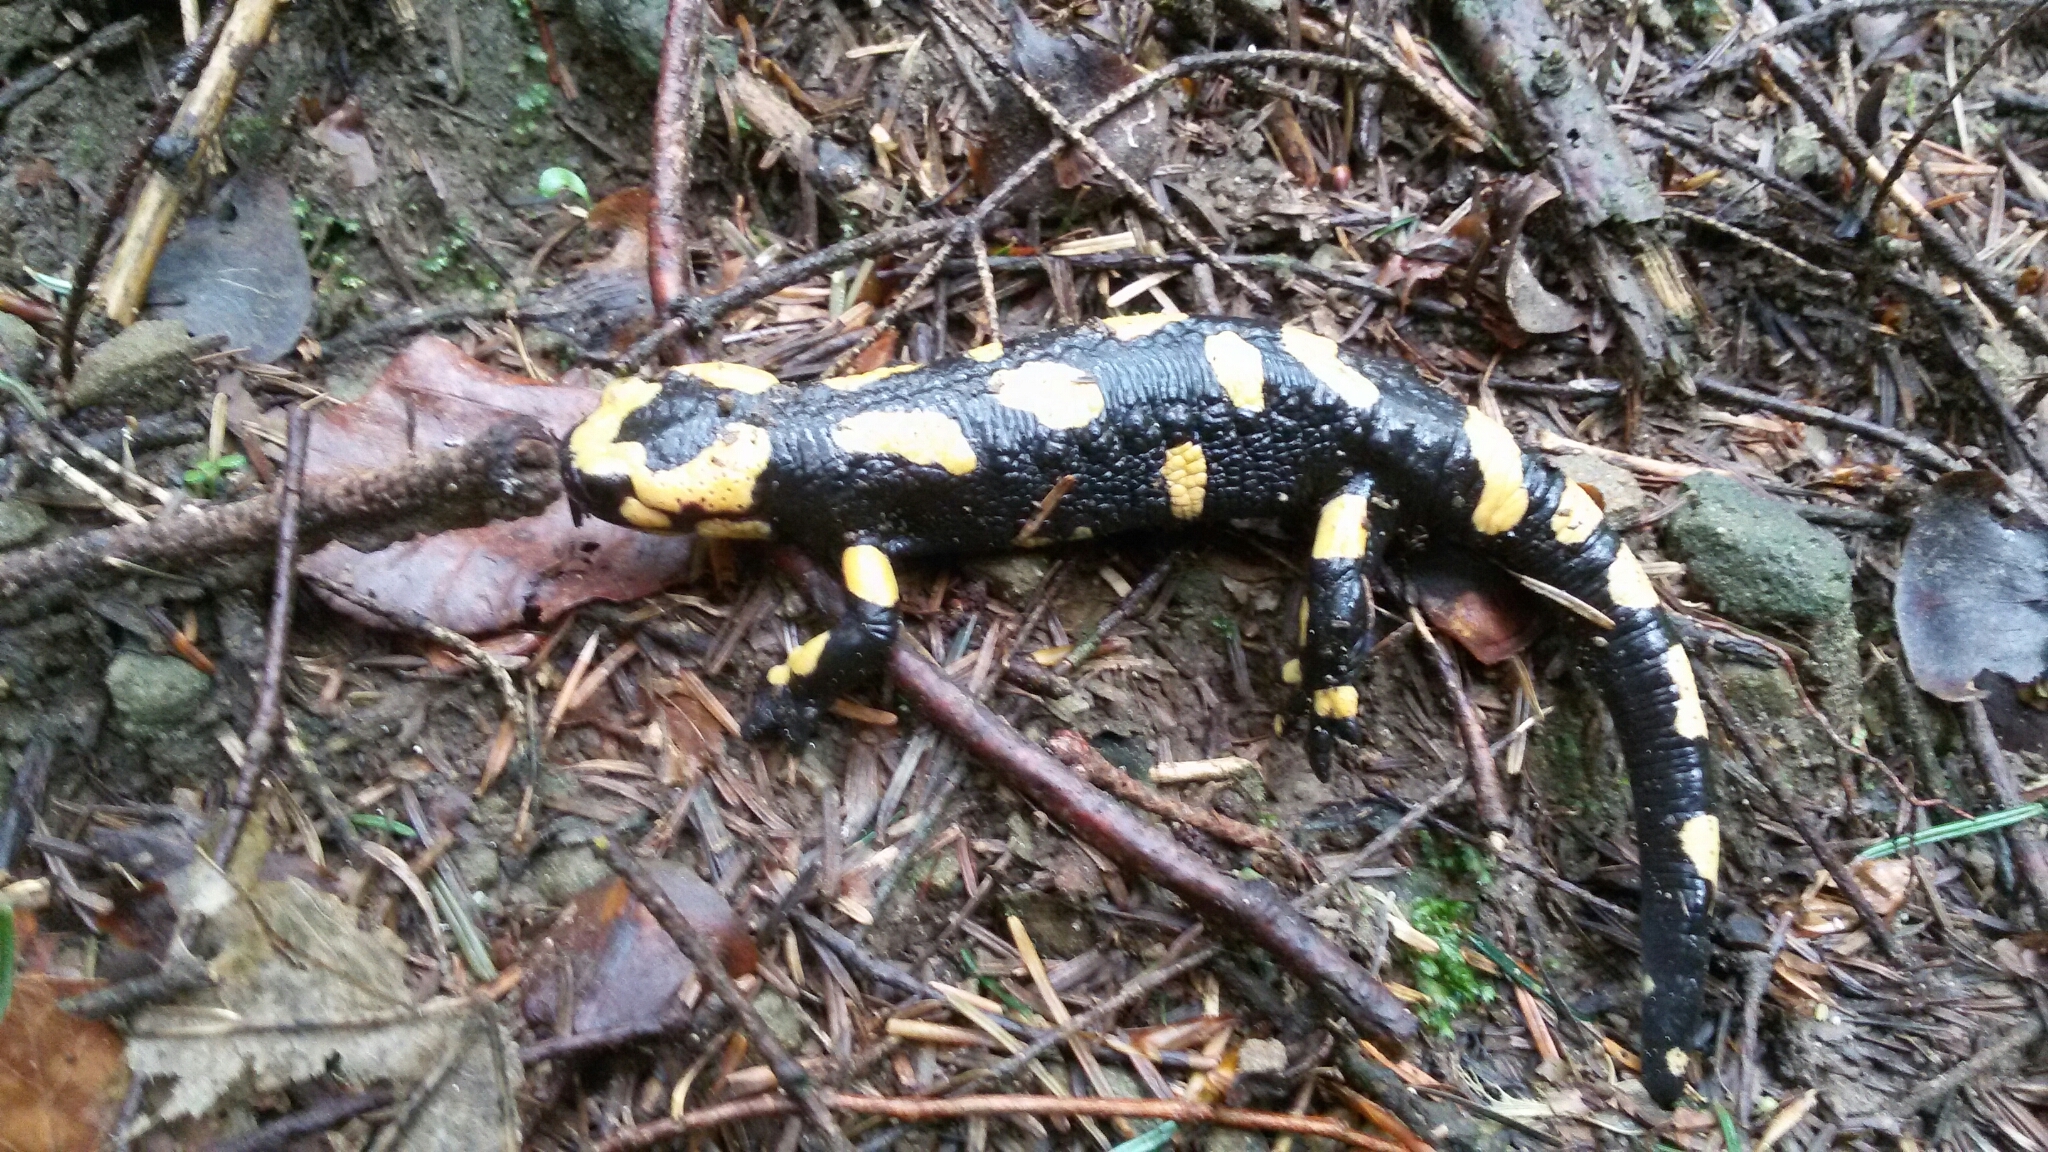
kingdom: Animalia
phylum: Chordata
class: Amphibia
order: Caudata
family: Salamandridae
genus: Salamandra
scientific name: Salamandra salamandra
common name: Fire salamander
